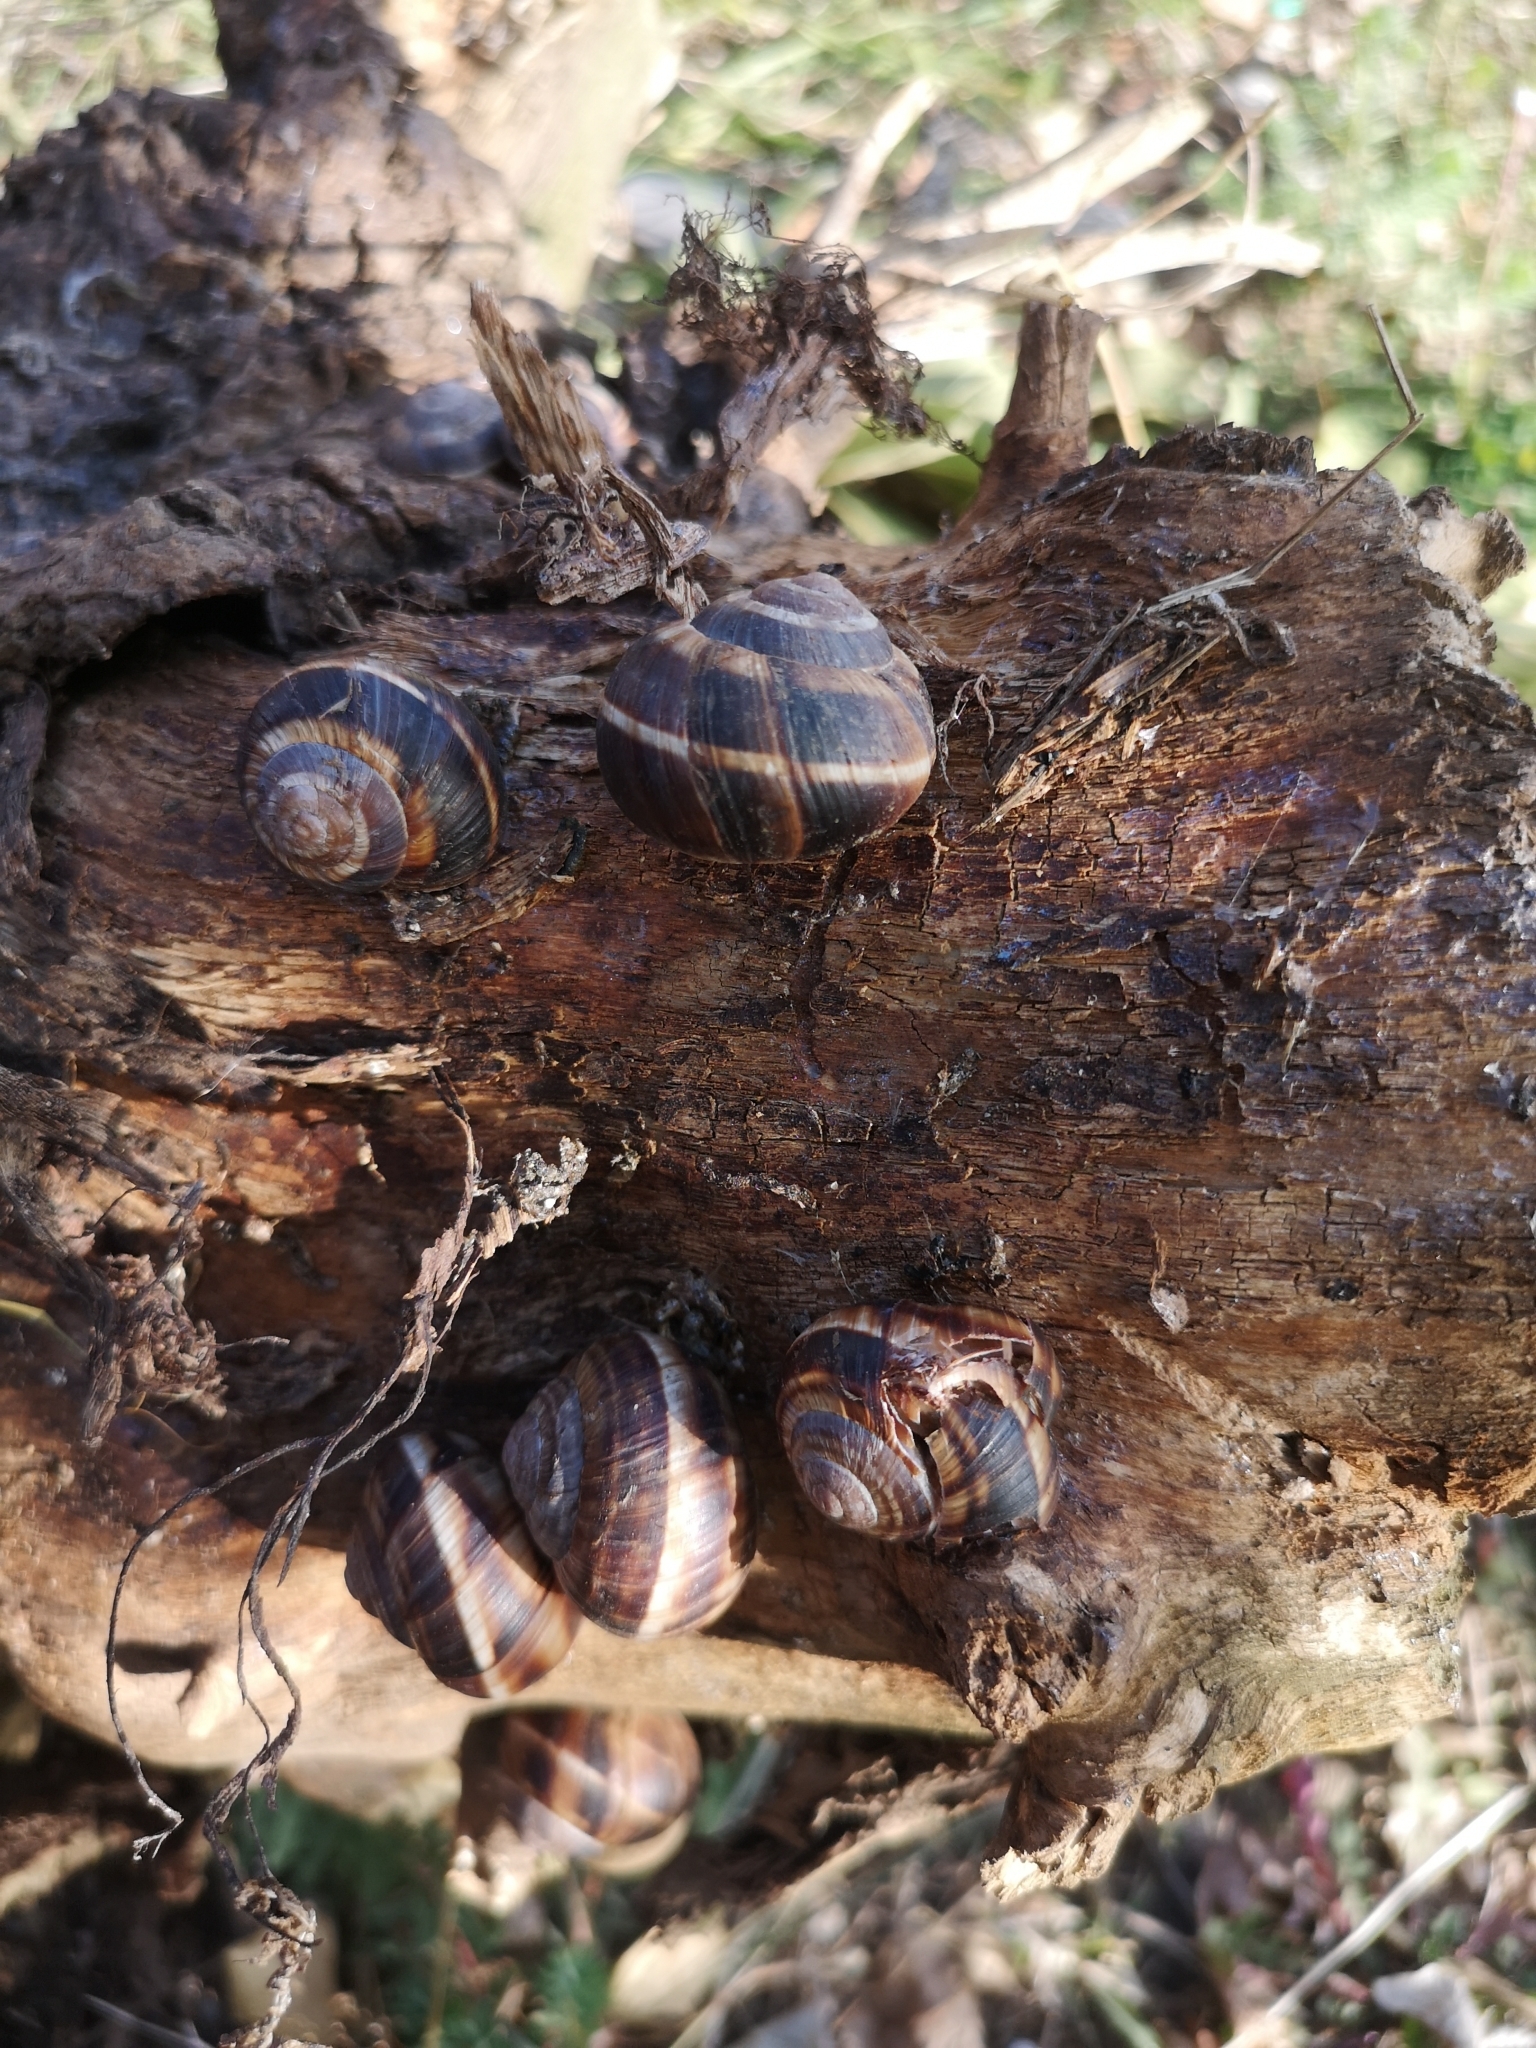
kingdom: Animalia
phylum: Mollusca
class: Gastropoda
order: Stylommatophora
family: Helicidae
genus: Helix
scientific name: Helix lucorum
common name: Turkish snail
